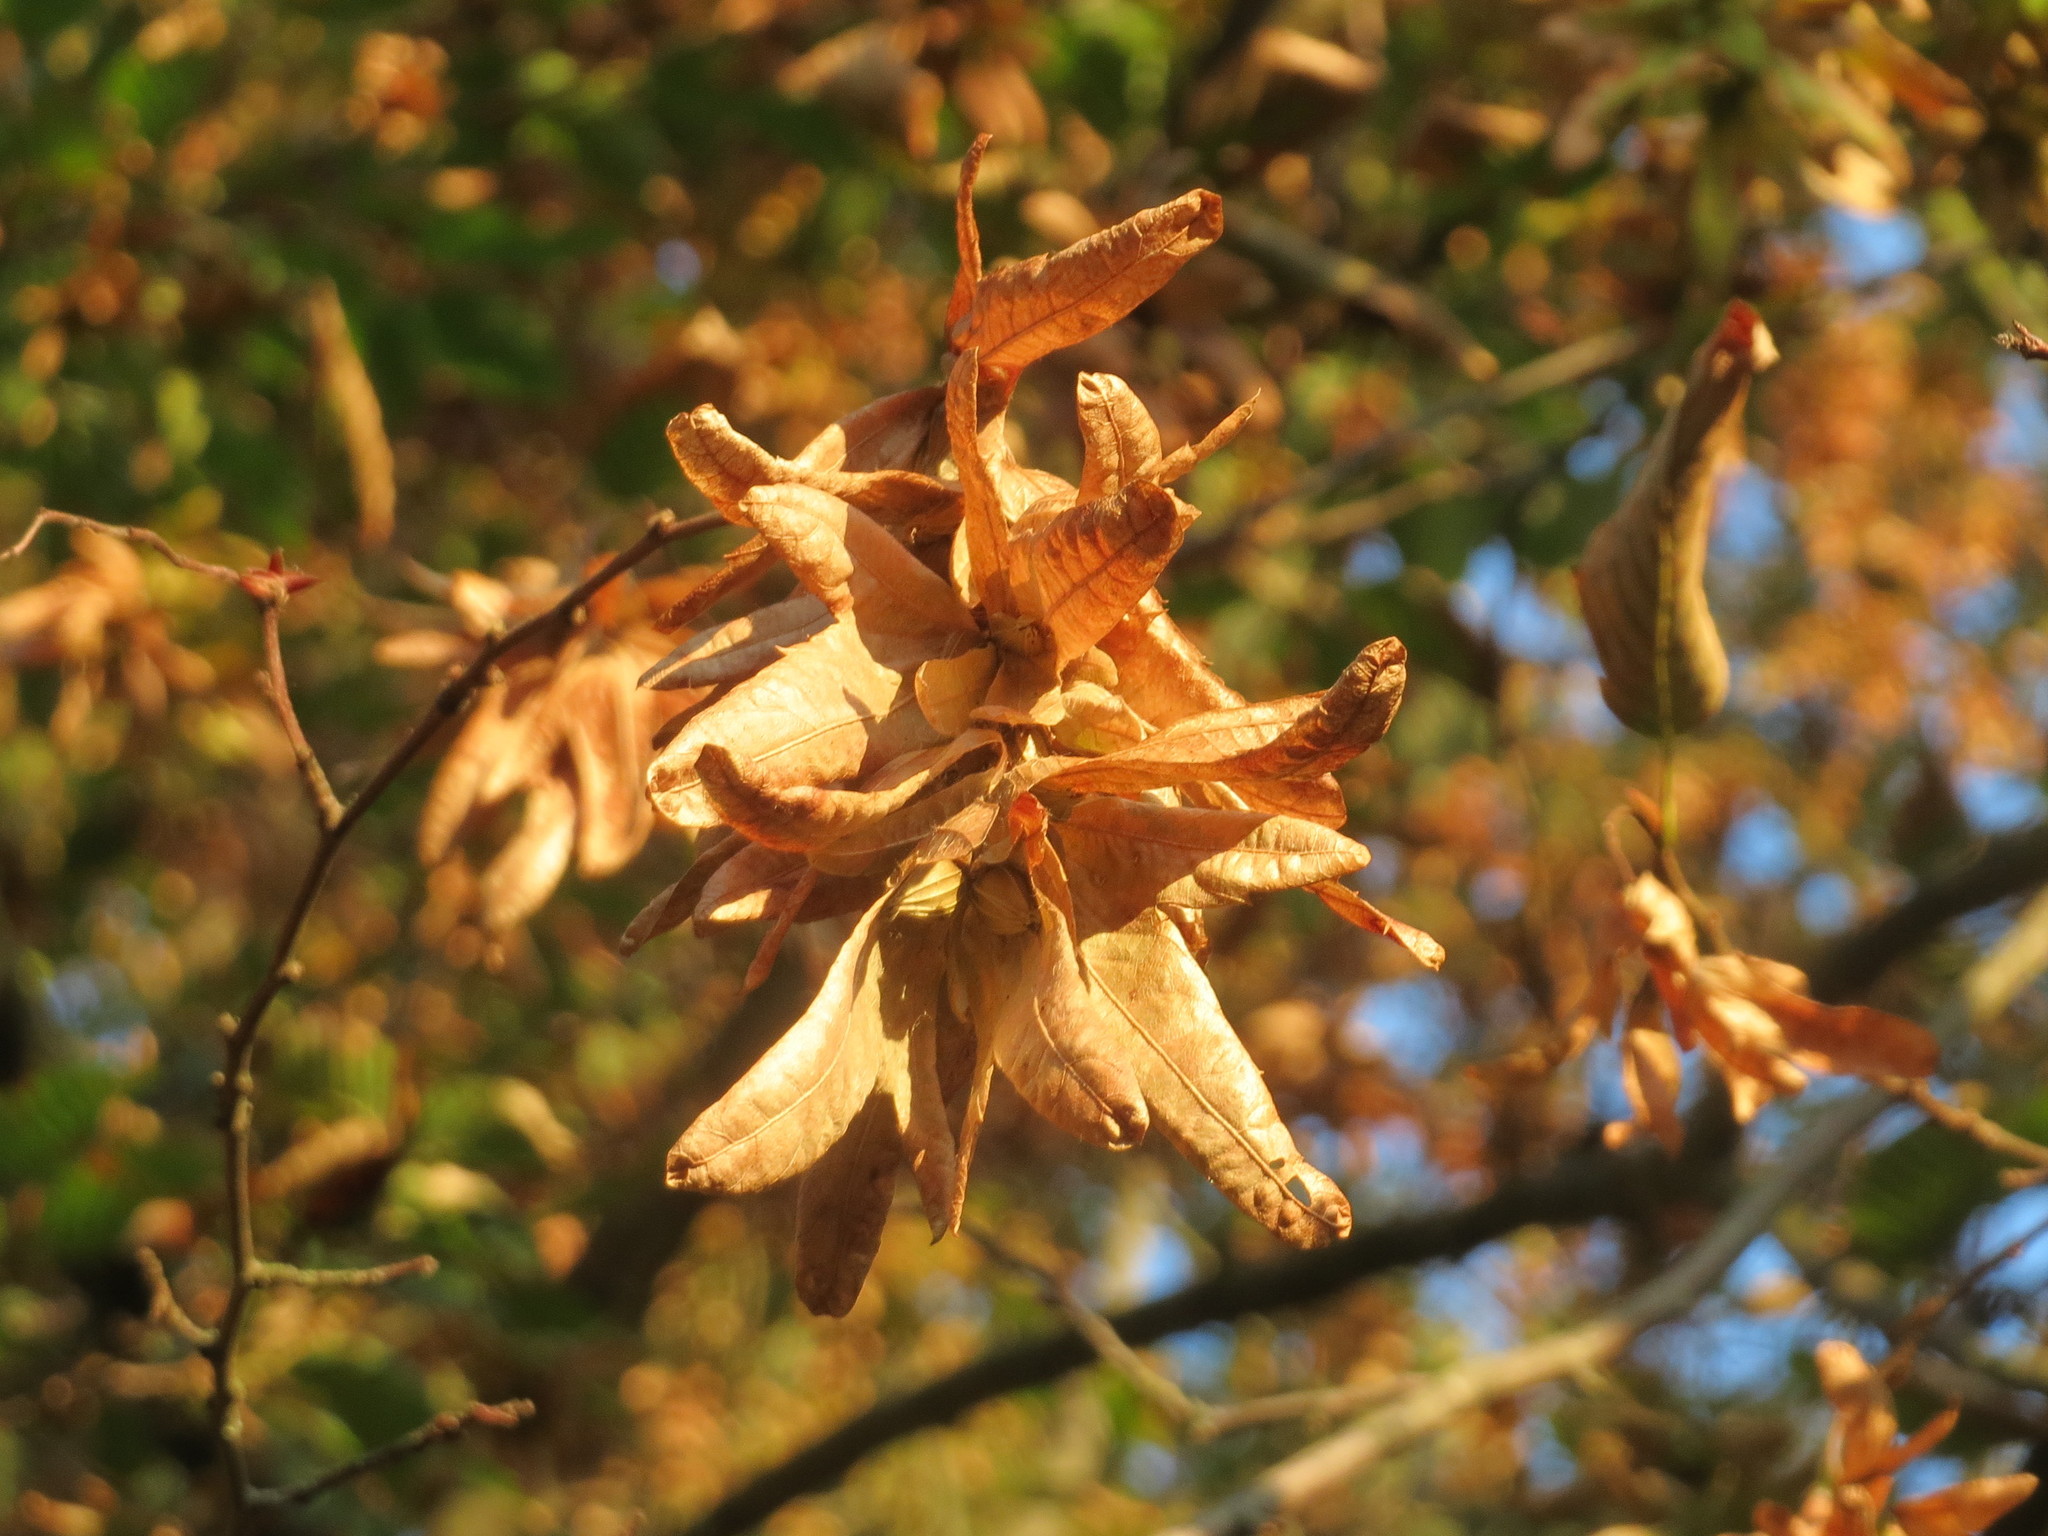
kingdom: Plantae
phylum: Tracheophyta
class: Magnoliopsida
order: Fagales
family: Betulaceae
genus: Carpinus
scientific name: Carpinus betulus
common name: Hornbeam
